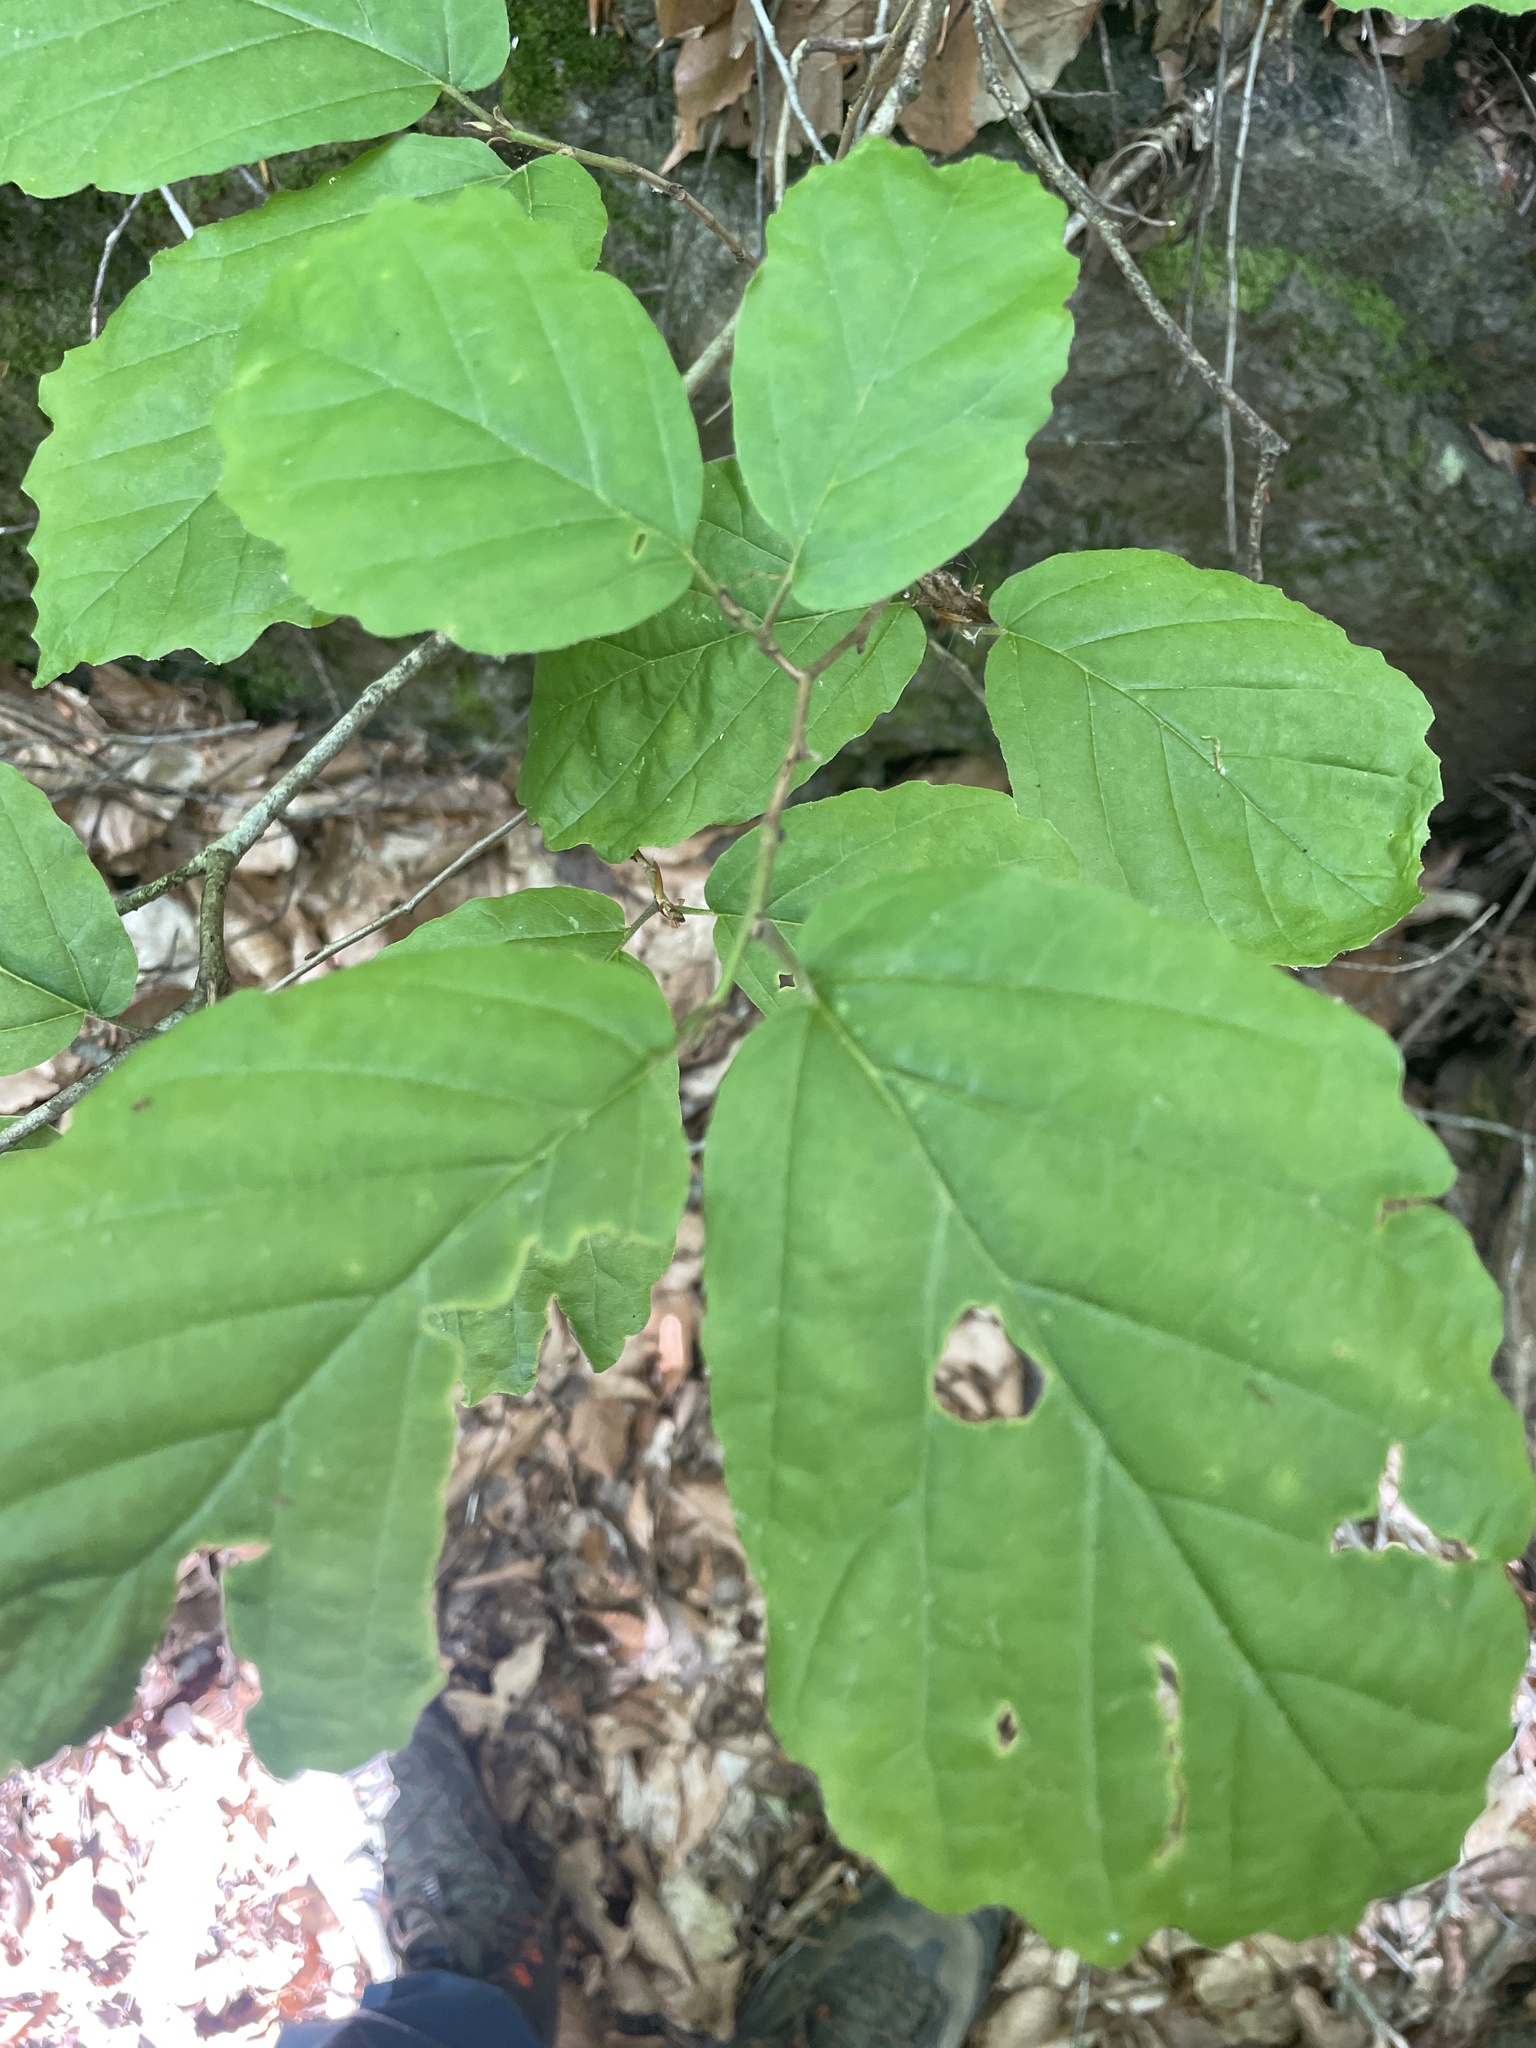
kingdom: Plantae
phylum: Tracheophyta
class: Magnoliopsida
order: Saxifragales
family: Hamamelidaceae
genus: Hamamelis
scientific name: Hamamelis virginiana
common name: Witch-hazel
